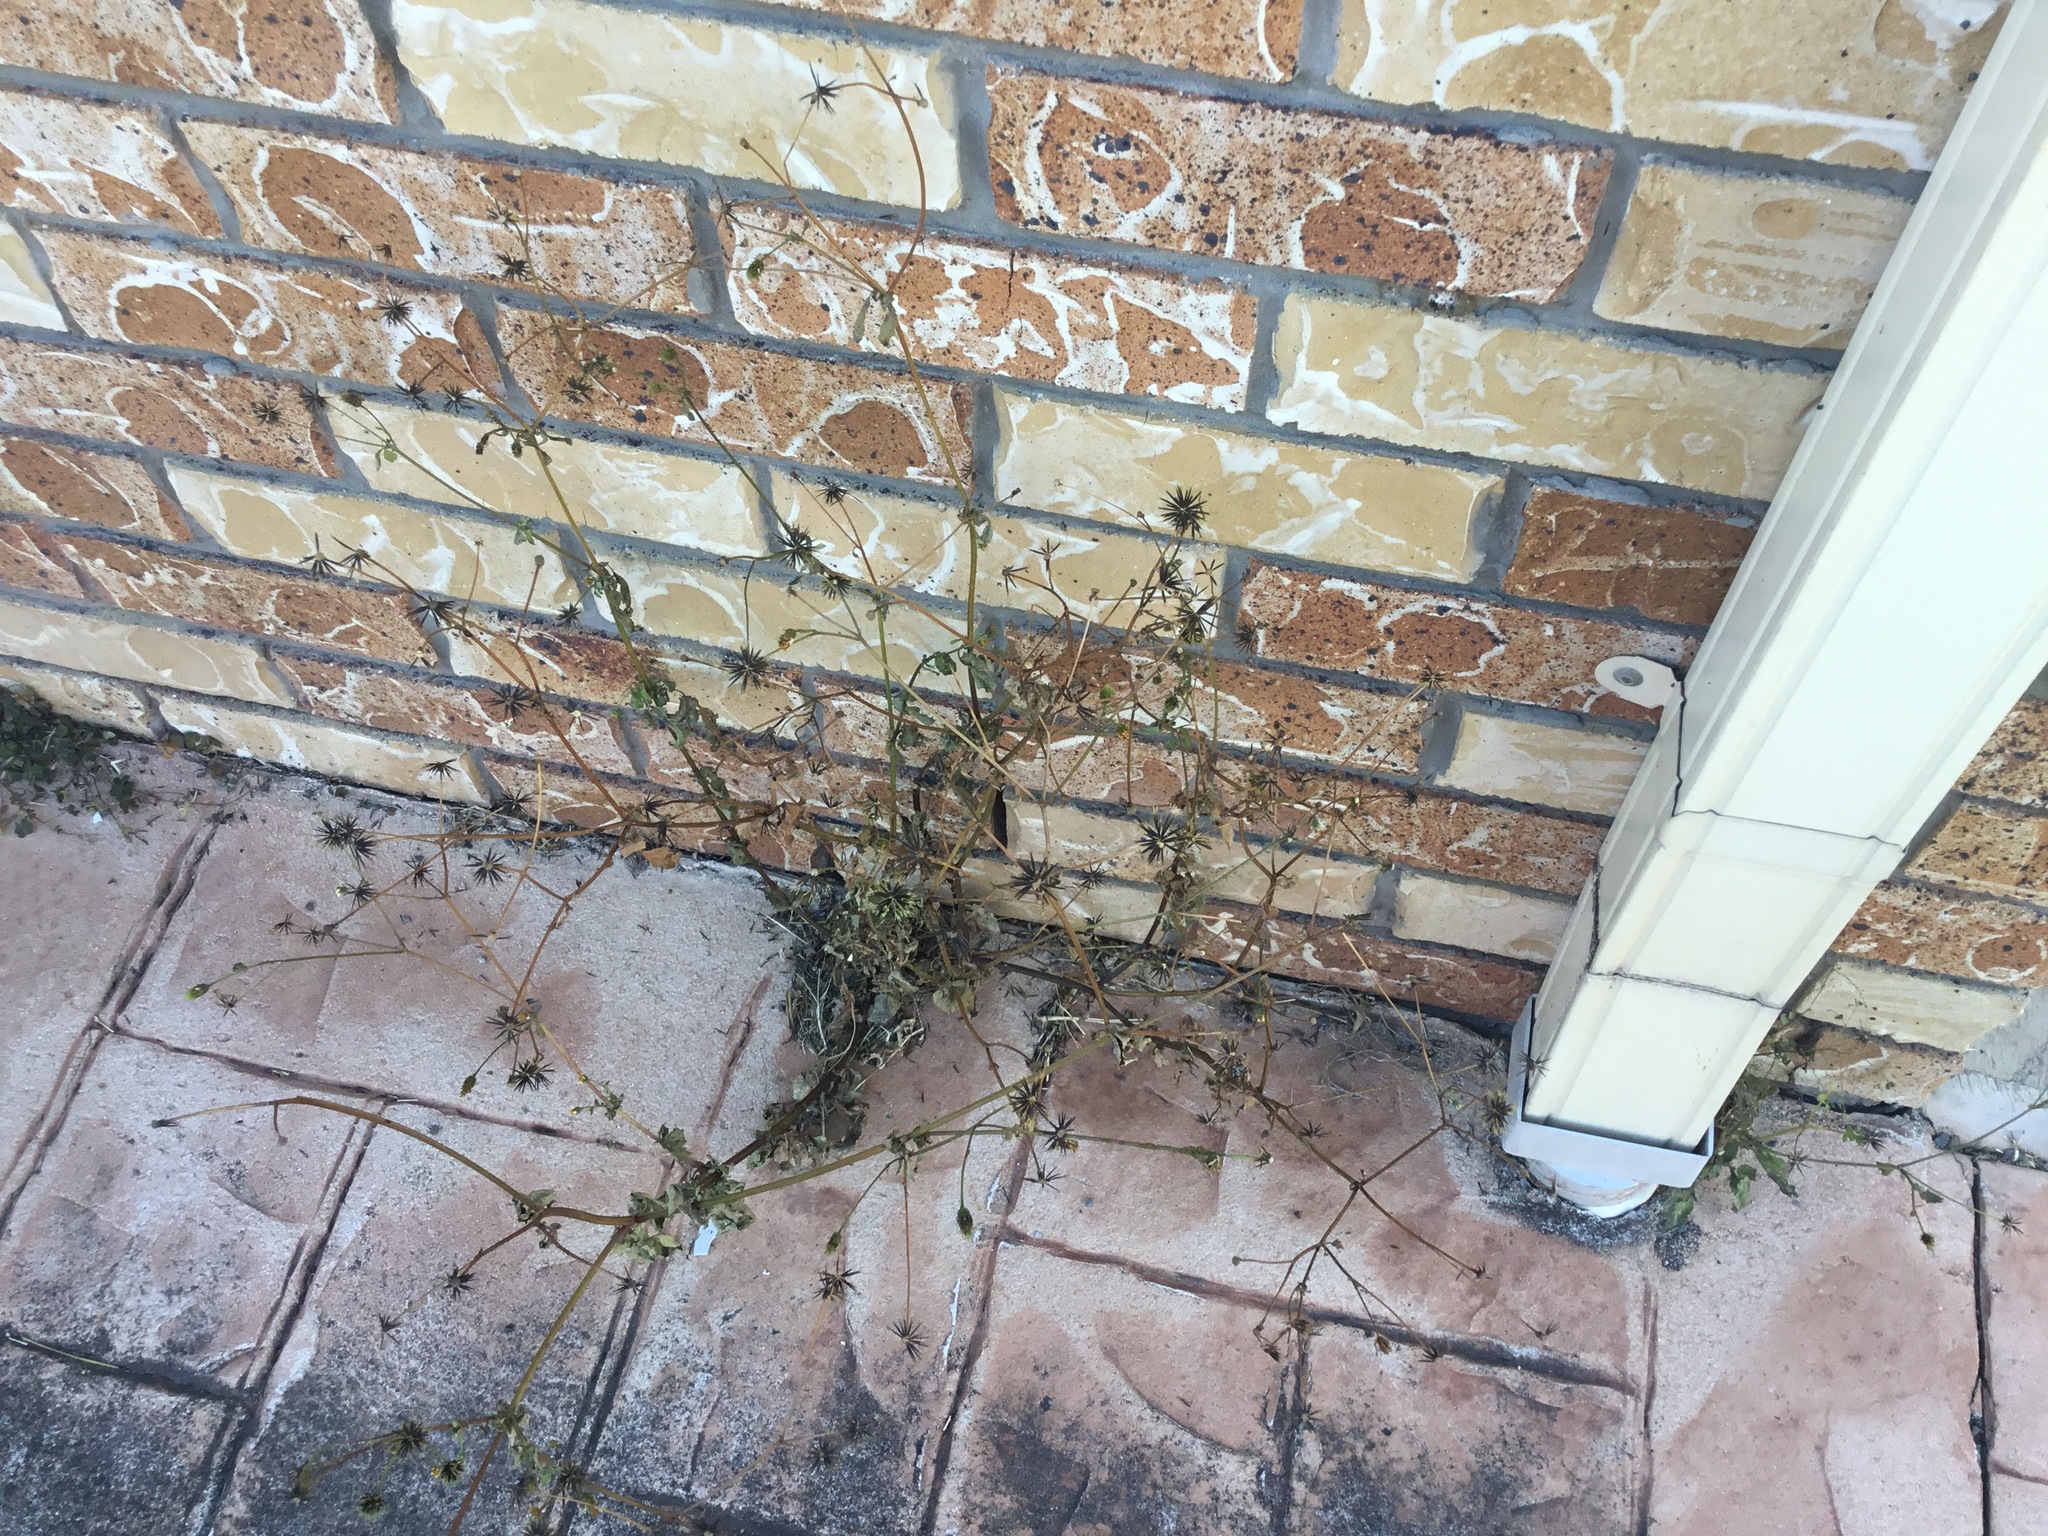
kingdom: Plantae
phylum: Tracheophyta
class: Magnoliopsida
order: Asterales
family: Asteraceae
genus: Bidens
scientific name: Bidens pilosa
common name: Black-jack
